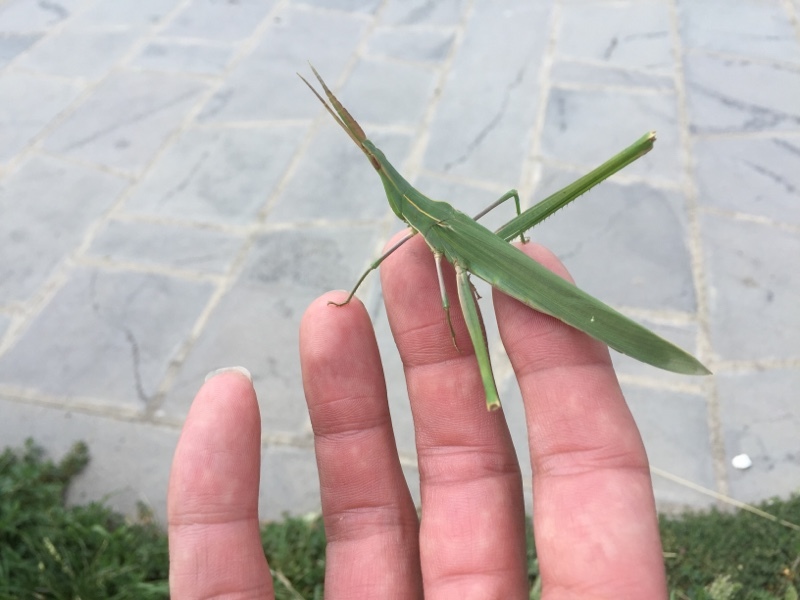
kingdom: Animalia
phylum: Arthropoda
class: Insecta
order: Orthoptera
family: Acrididae
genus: Acrida
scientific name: Acrida anatolica
